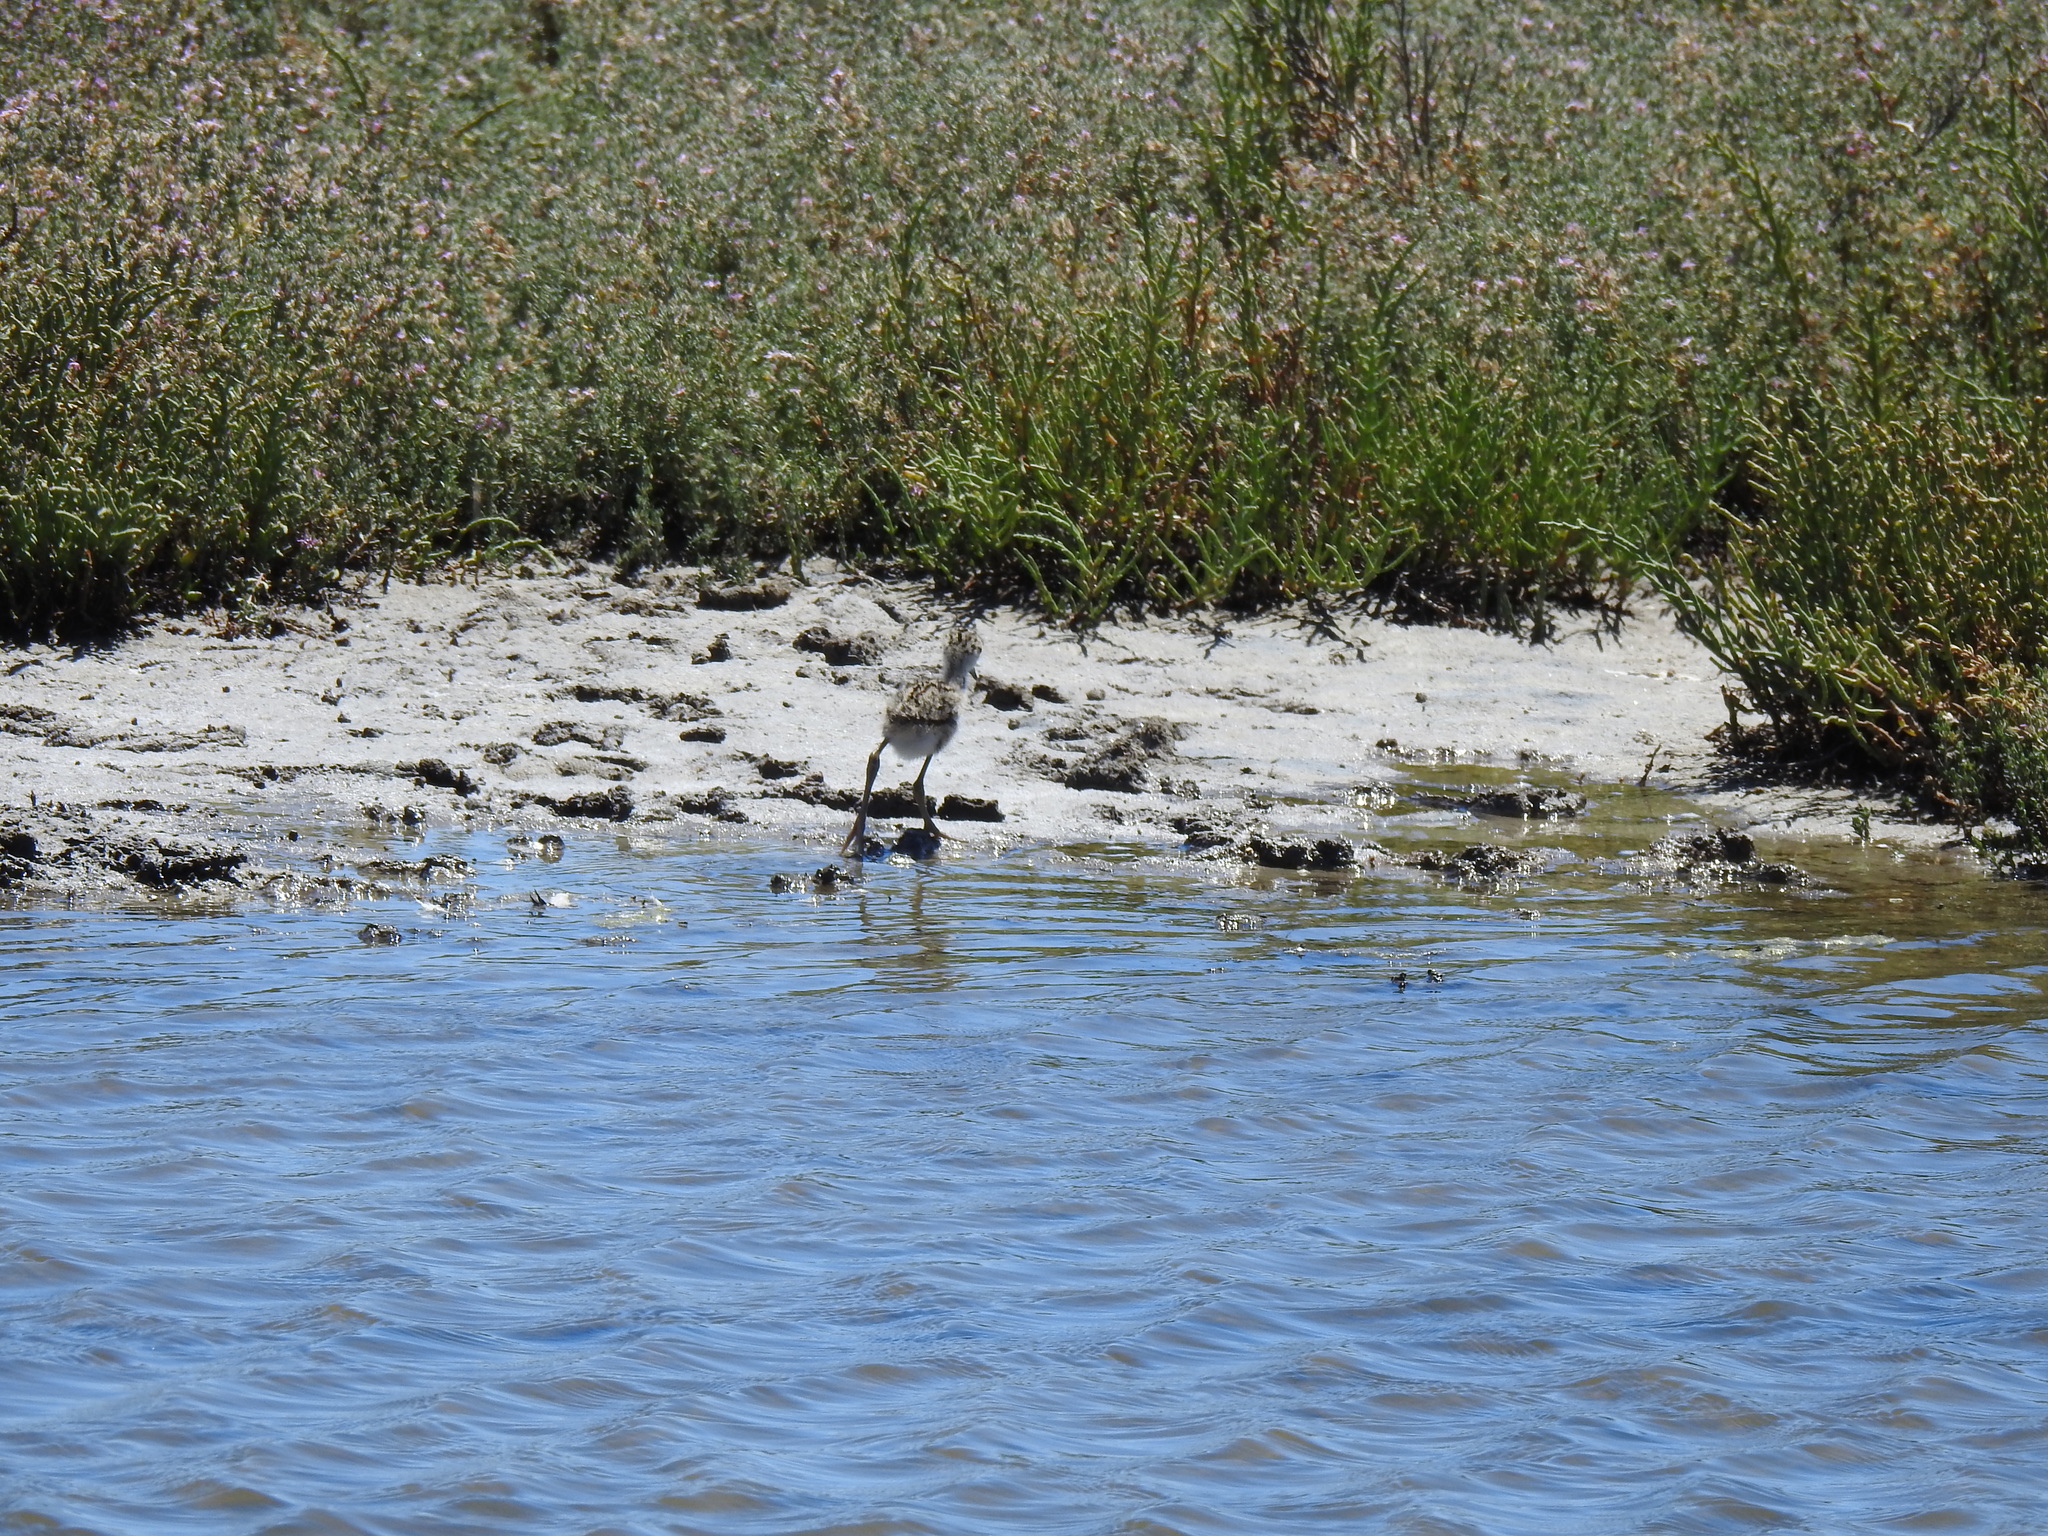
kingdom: Animalia
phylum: Chordata
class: Aves
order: Charadriiformes
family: Recurvirostridae
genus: Himantopus
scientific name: Himantopus mexicanus
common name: Black-necked stilt
